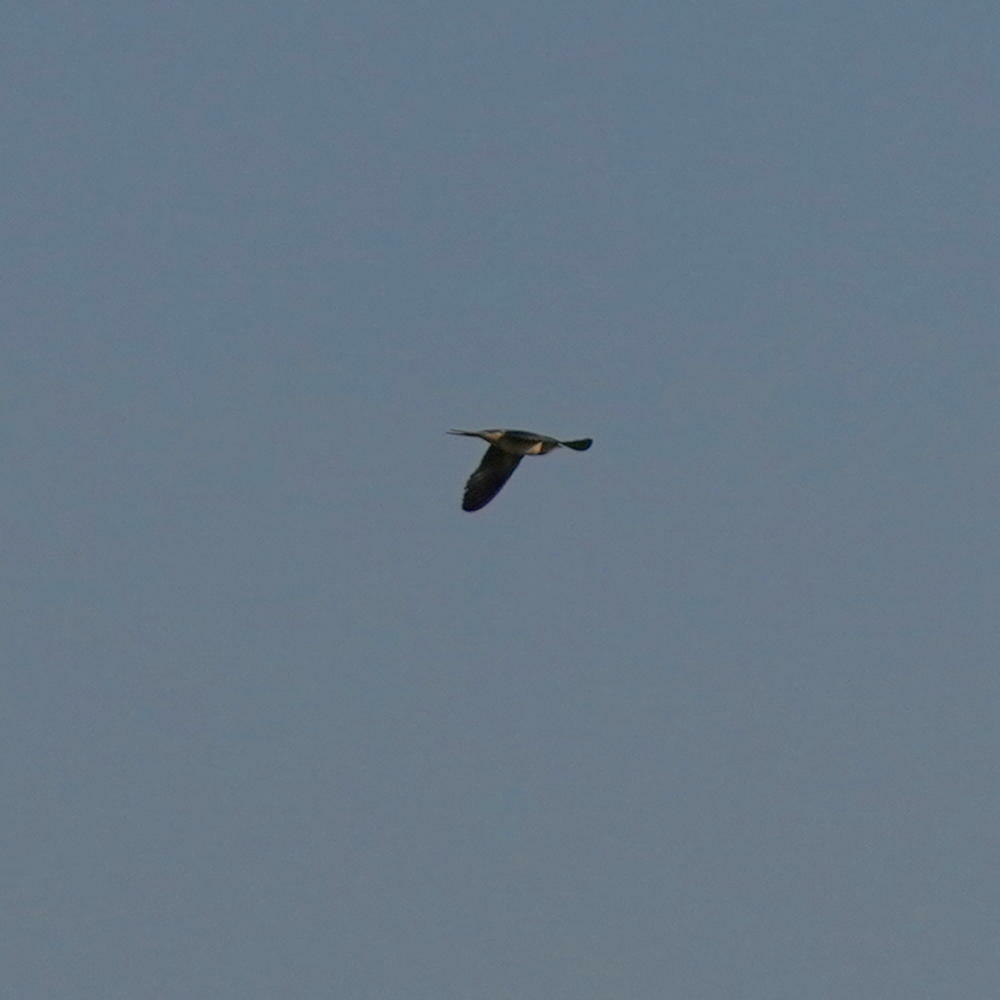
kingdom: Animalia
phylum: Chordata
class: Aves
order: Passeriformes
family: Hirundinidae
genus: Hirundo
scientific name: Hirundo rustica
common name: Barn swallow
